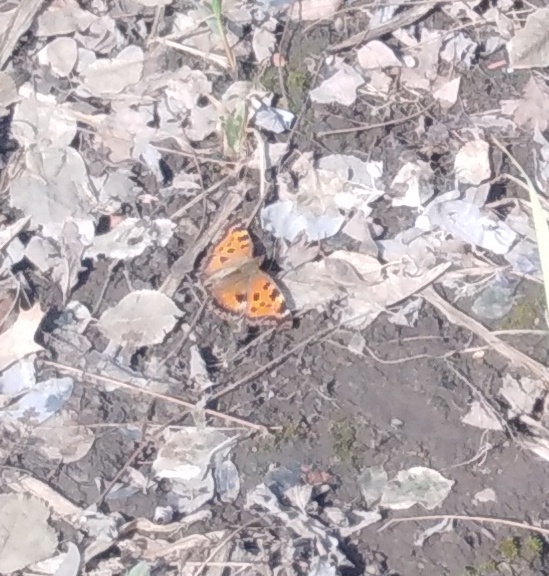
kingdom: Animalia
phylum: Arthropoda
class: Insecta
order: Lepidoptera
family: Nymphalidae
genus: Nymphalis
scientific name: Nymphalis xanthomelas
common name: Scarce tortoiseshell
